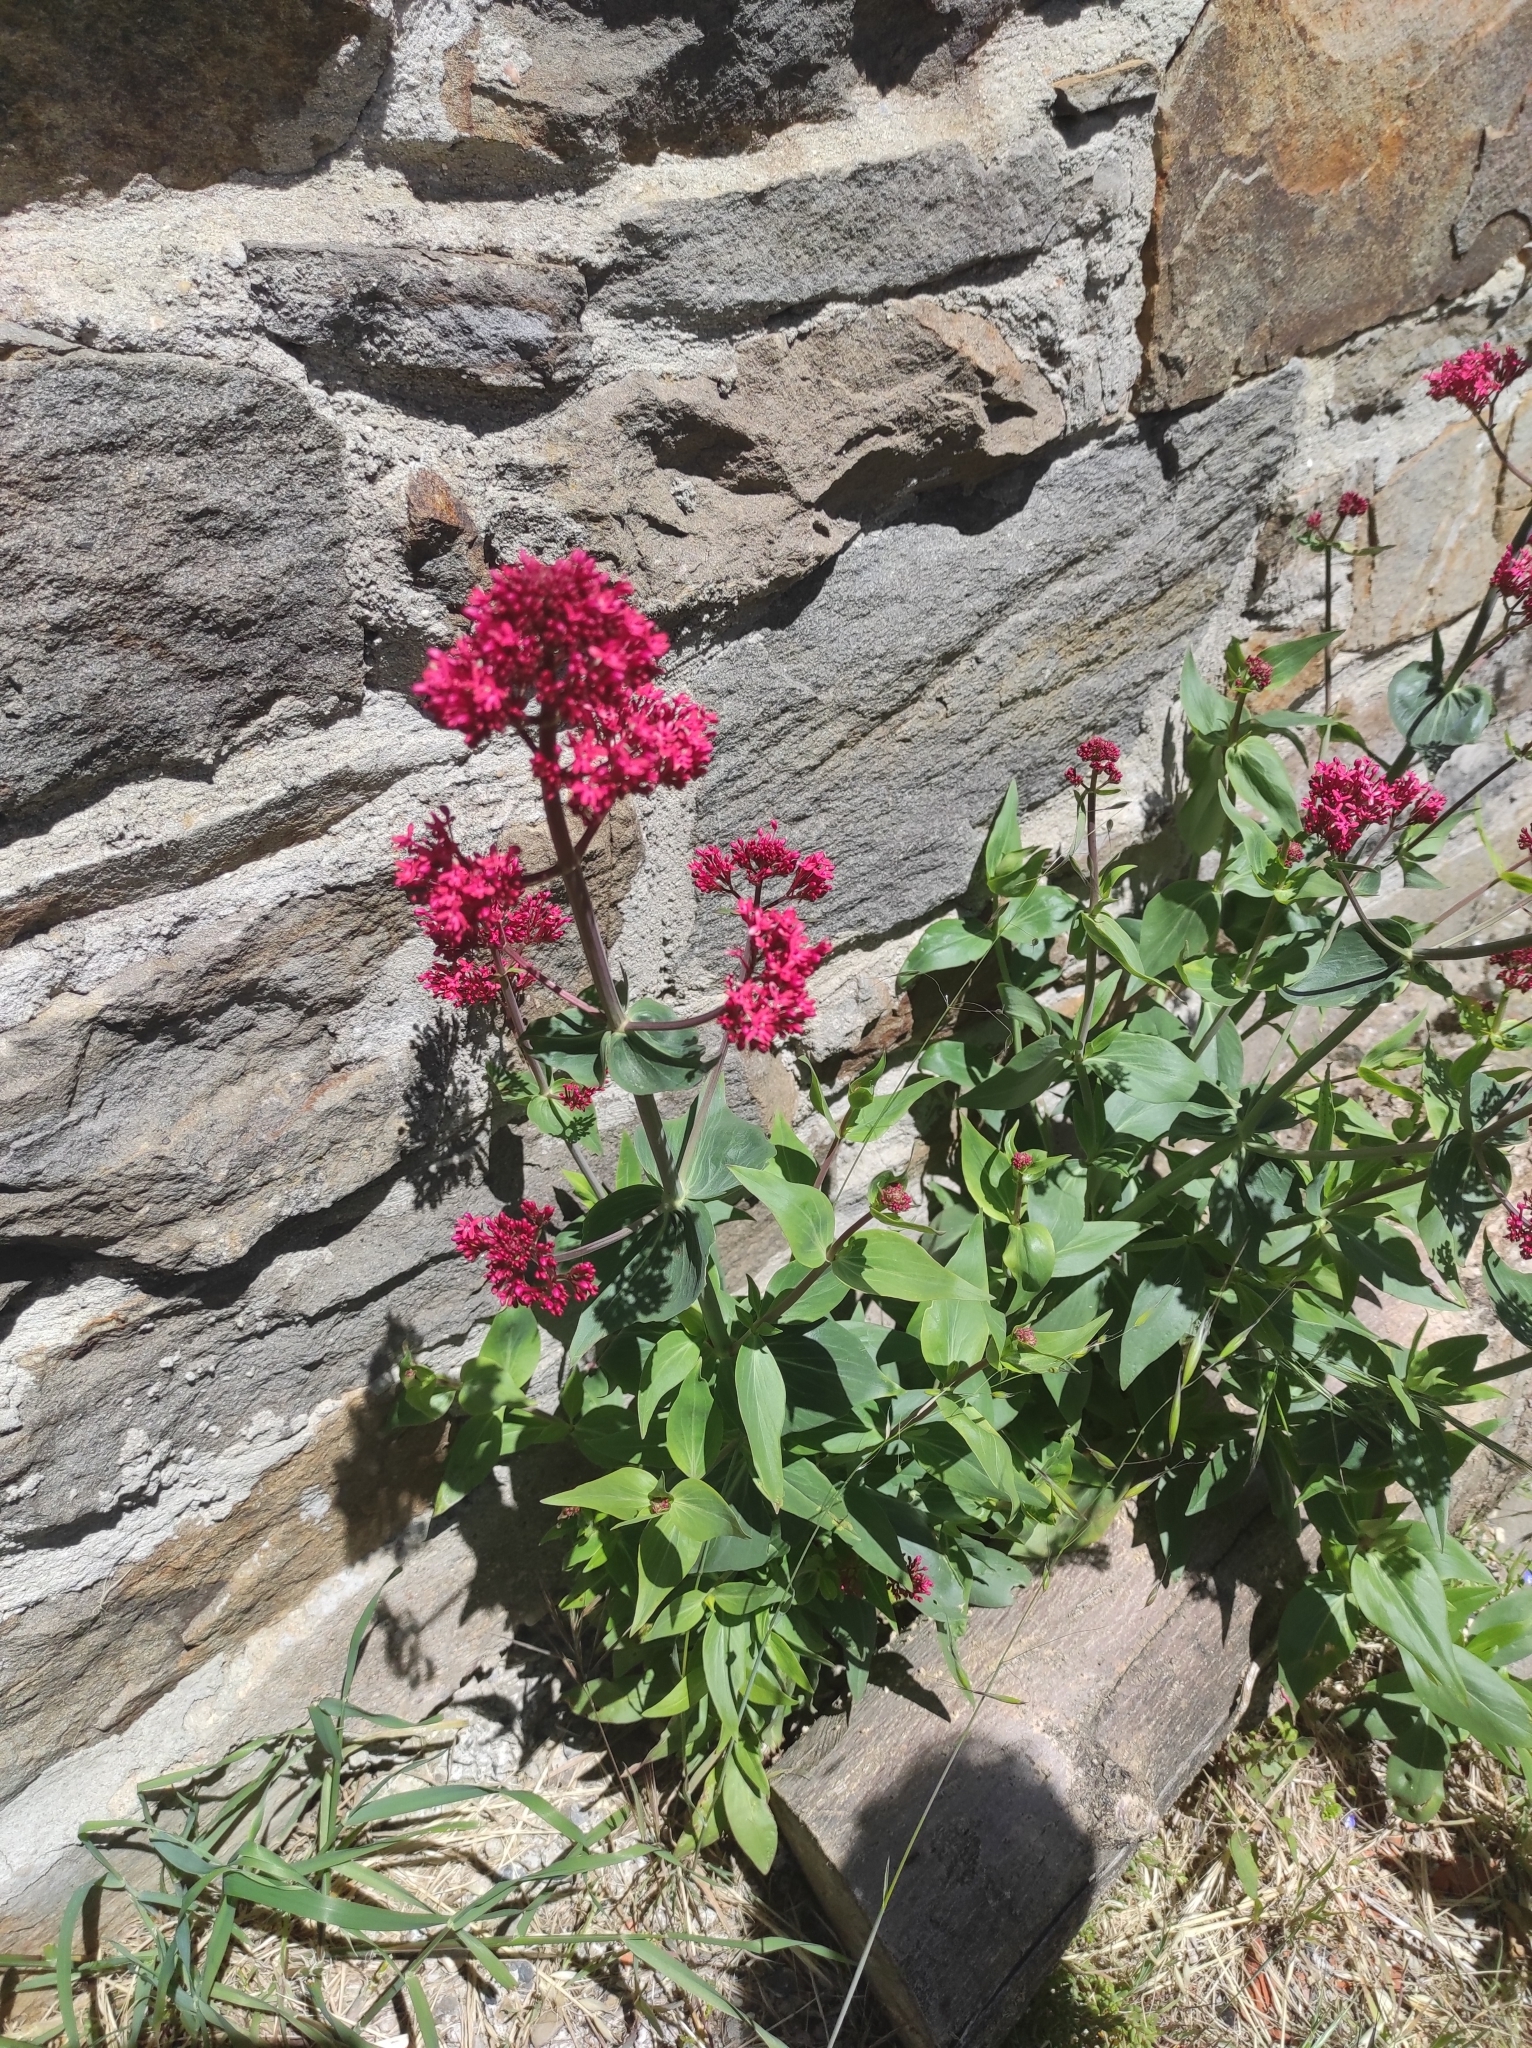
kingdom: Plantae
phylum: Tracheophyta
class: Magnoliopsida
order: Dipsacales
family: Caprifoliaceae
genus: Centranthus
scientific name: Centranthus ruber
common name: Red valerian
